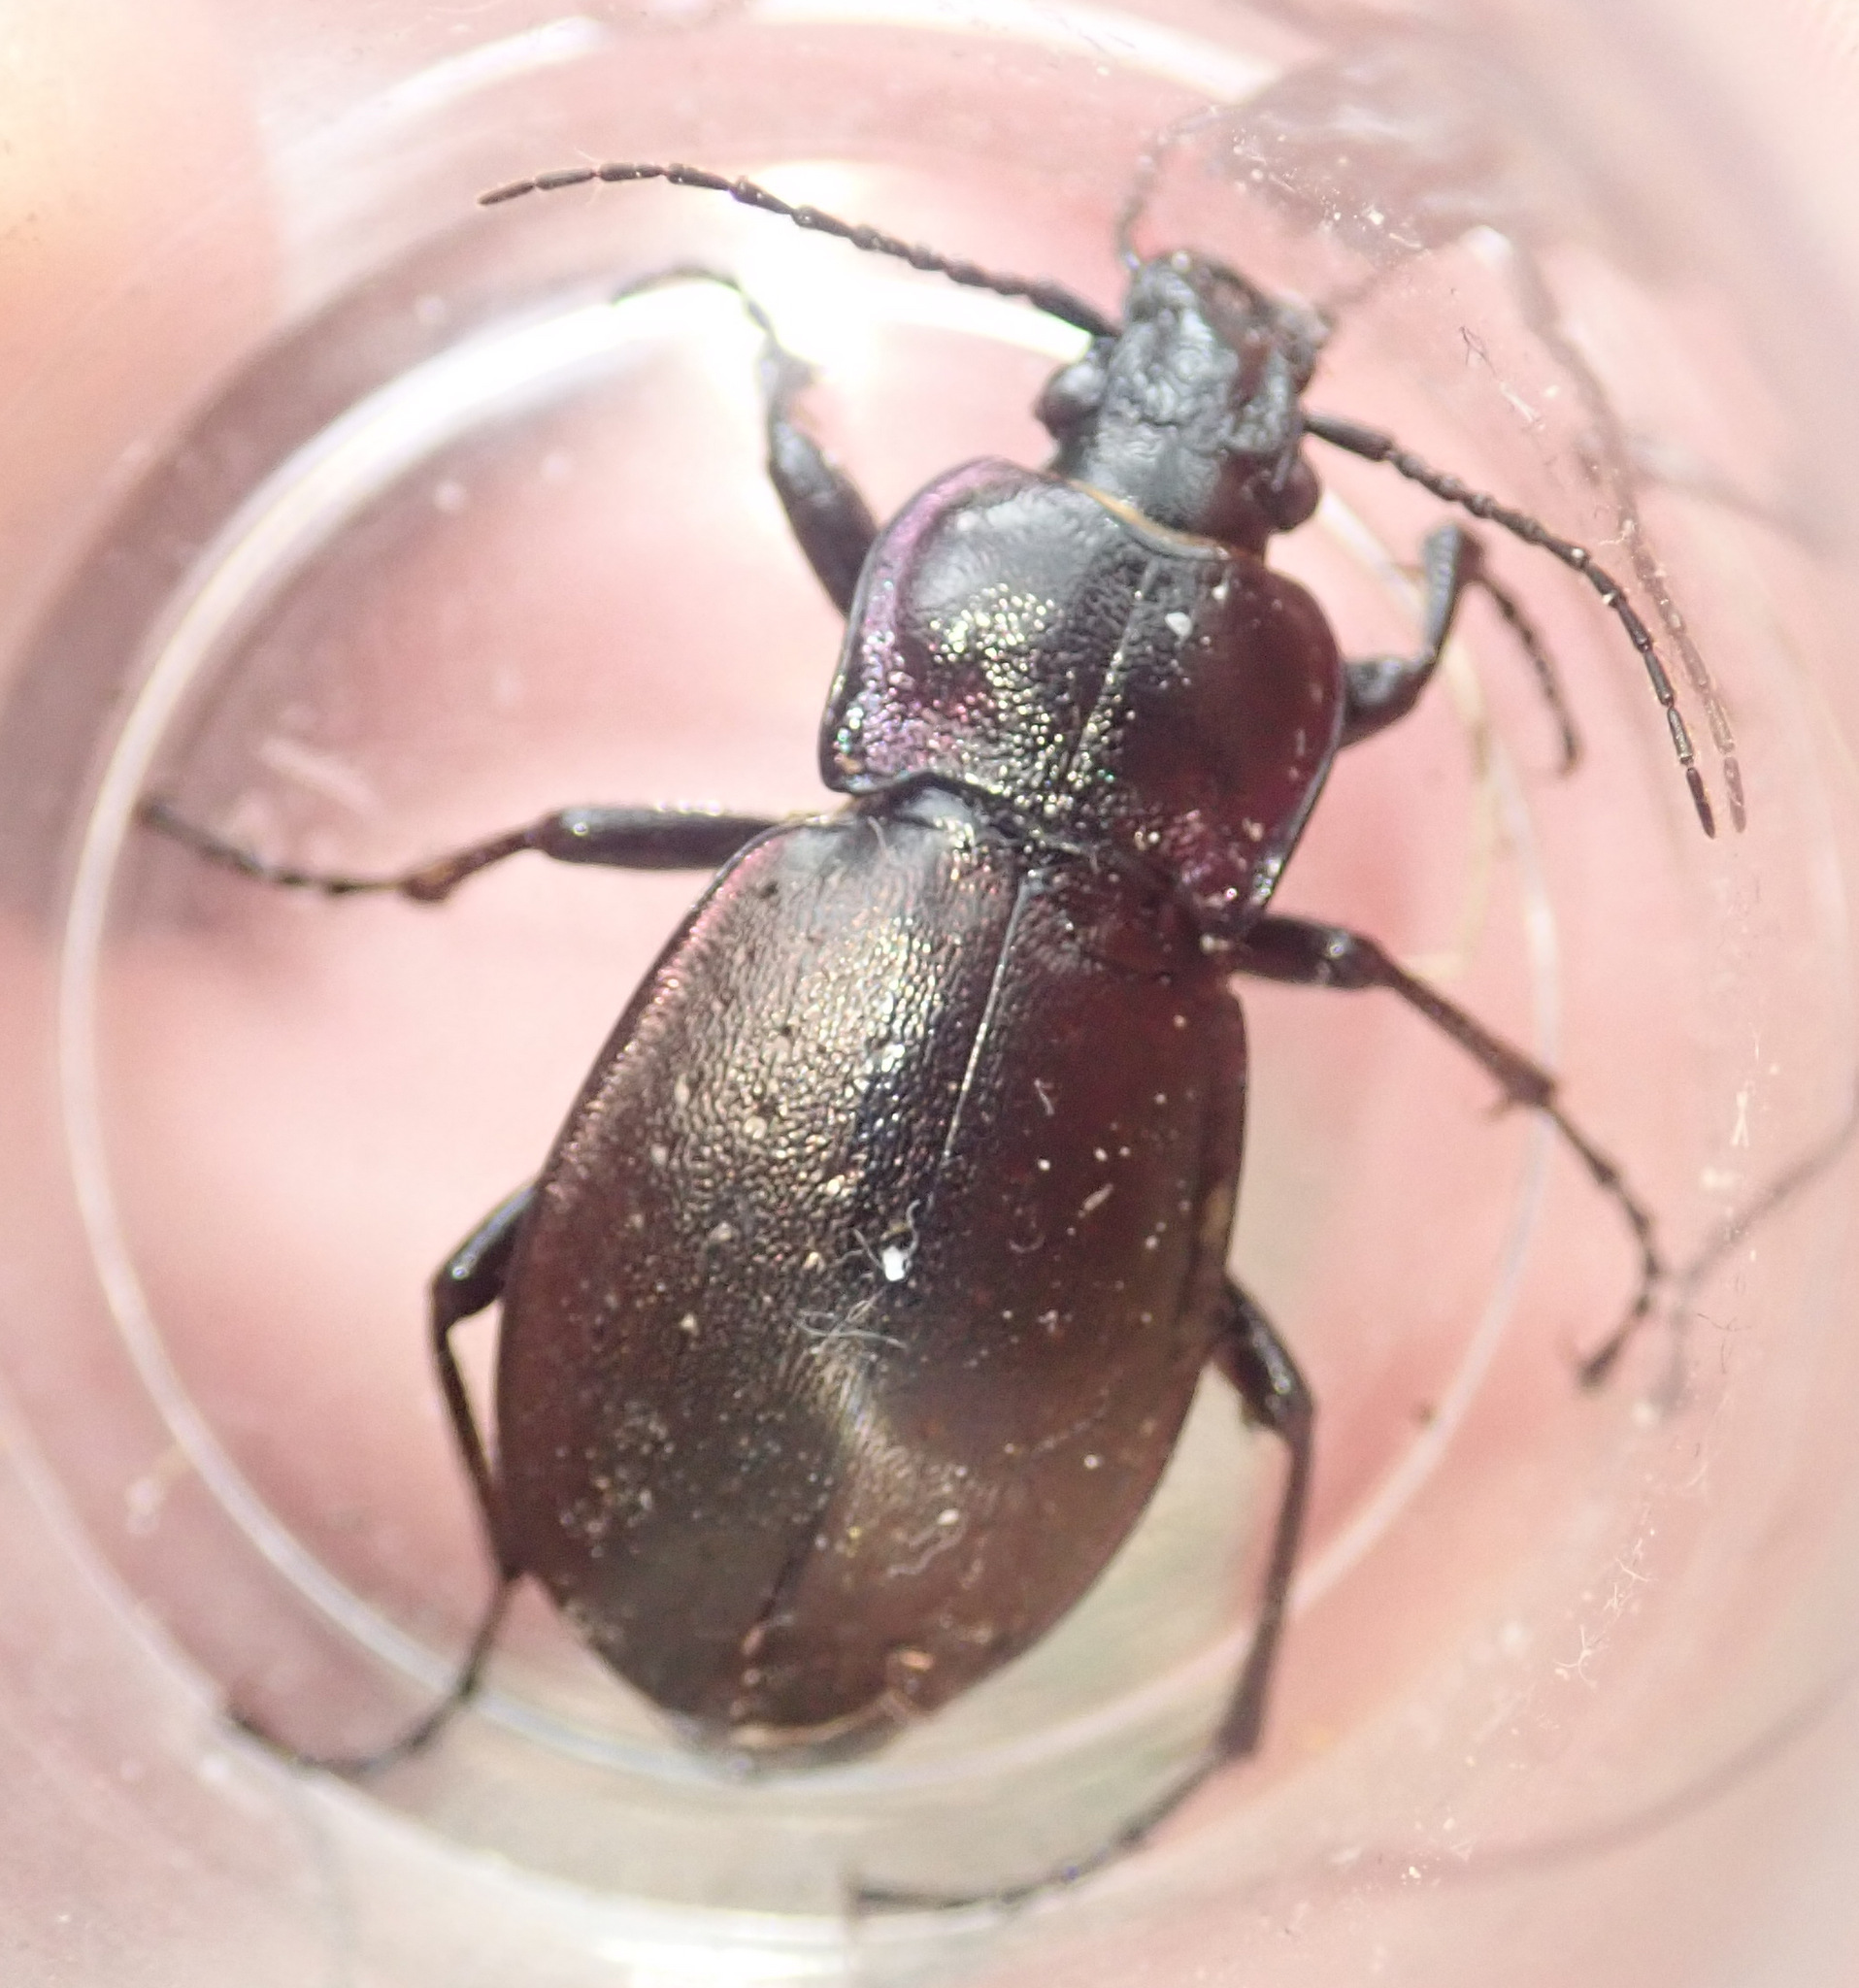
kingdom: Animalia
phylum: Arthropoda
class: Insecta
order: Coleoptera
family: Carabidae
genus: Carabus
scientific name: Carabus nemoralis
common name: European ground beetle
